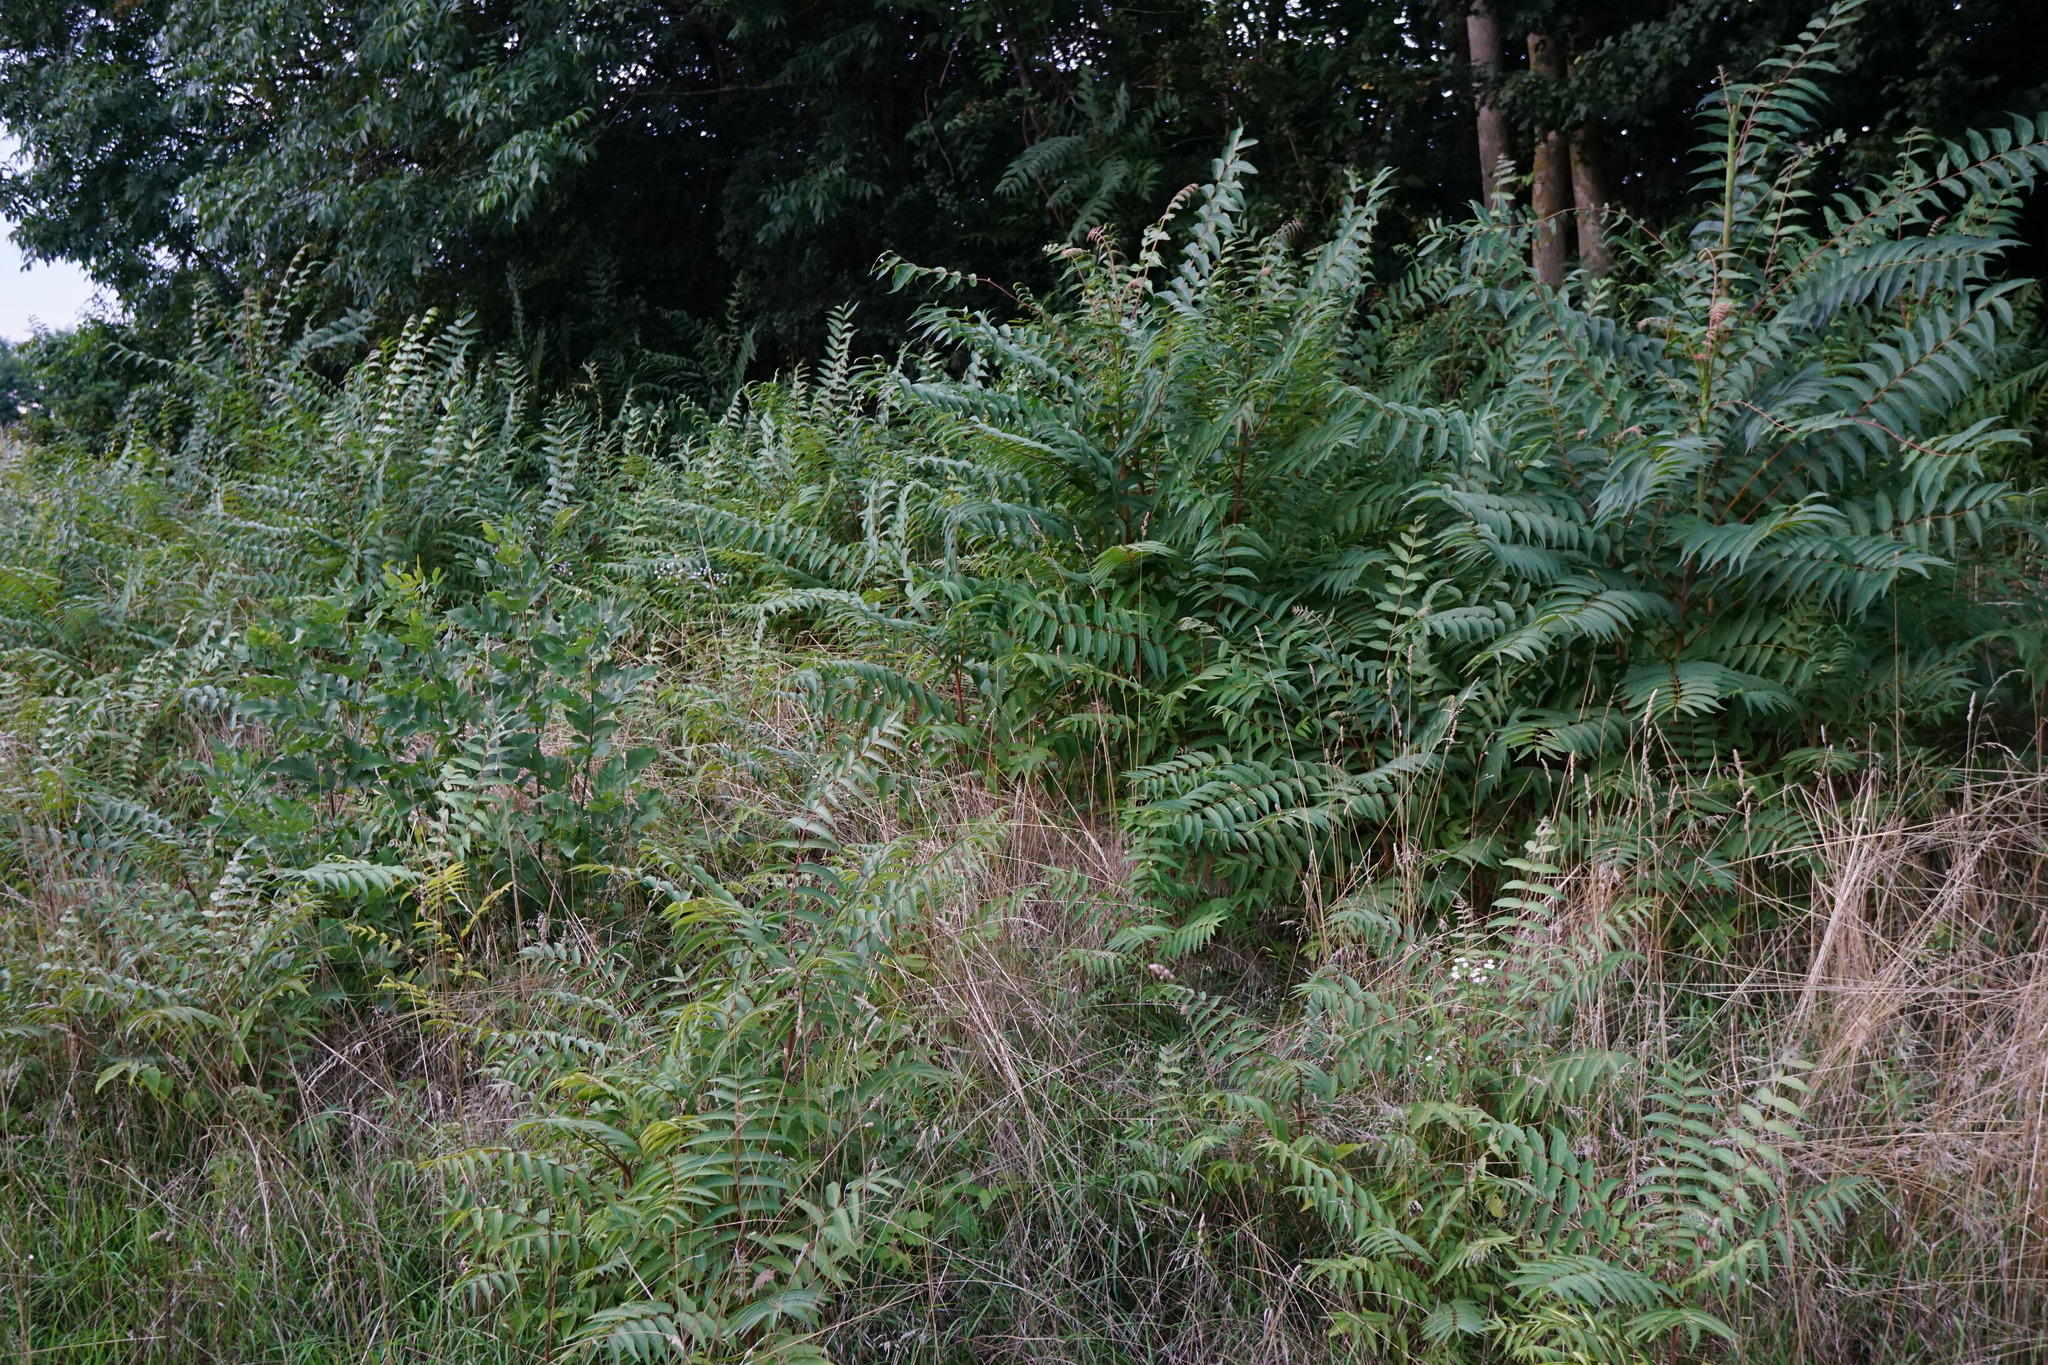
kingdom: Plantae
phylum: Tracheophyta
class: Magnoliopsida
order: Sapindales
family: Simaroubaceae
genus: Ailanthus
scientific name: Ailanthus altissima
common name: Tree-of-heaven
